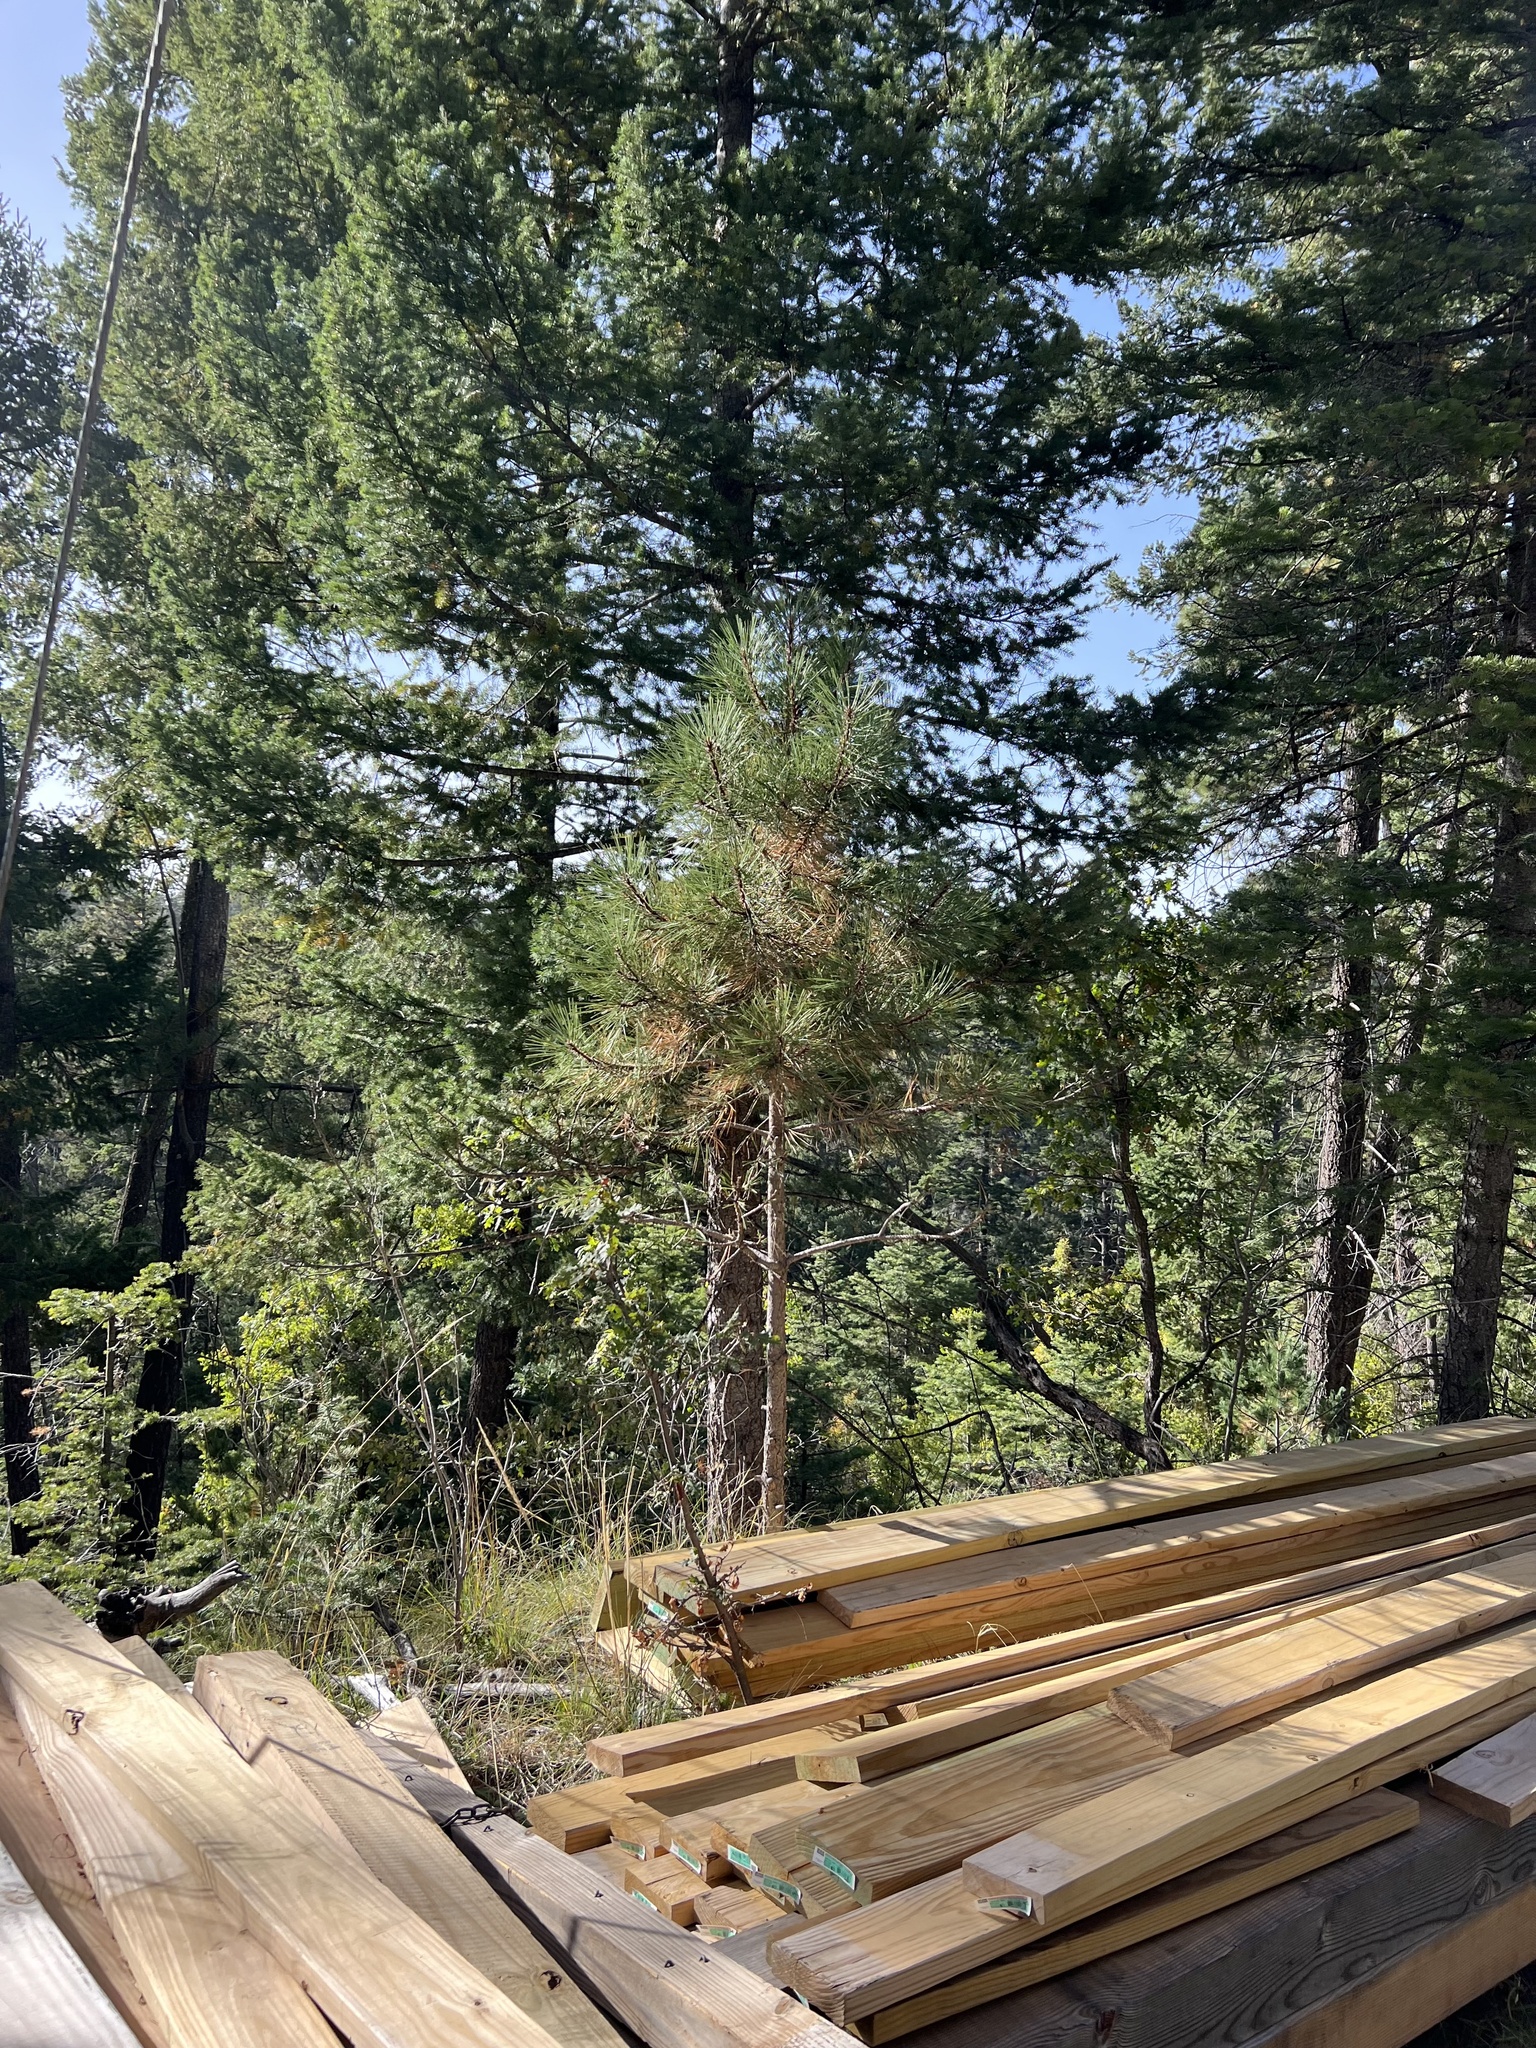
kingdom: Plantae
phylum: Tracheophyta
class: Pinopsida
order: Pinales
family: Pinaceae
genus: Pinus
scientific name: Pinus ponderosa
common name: Western yellow-pine
